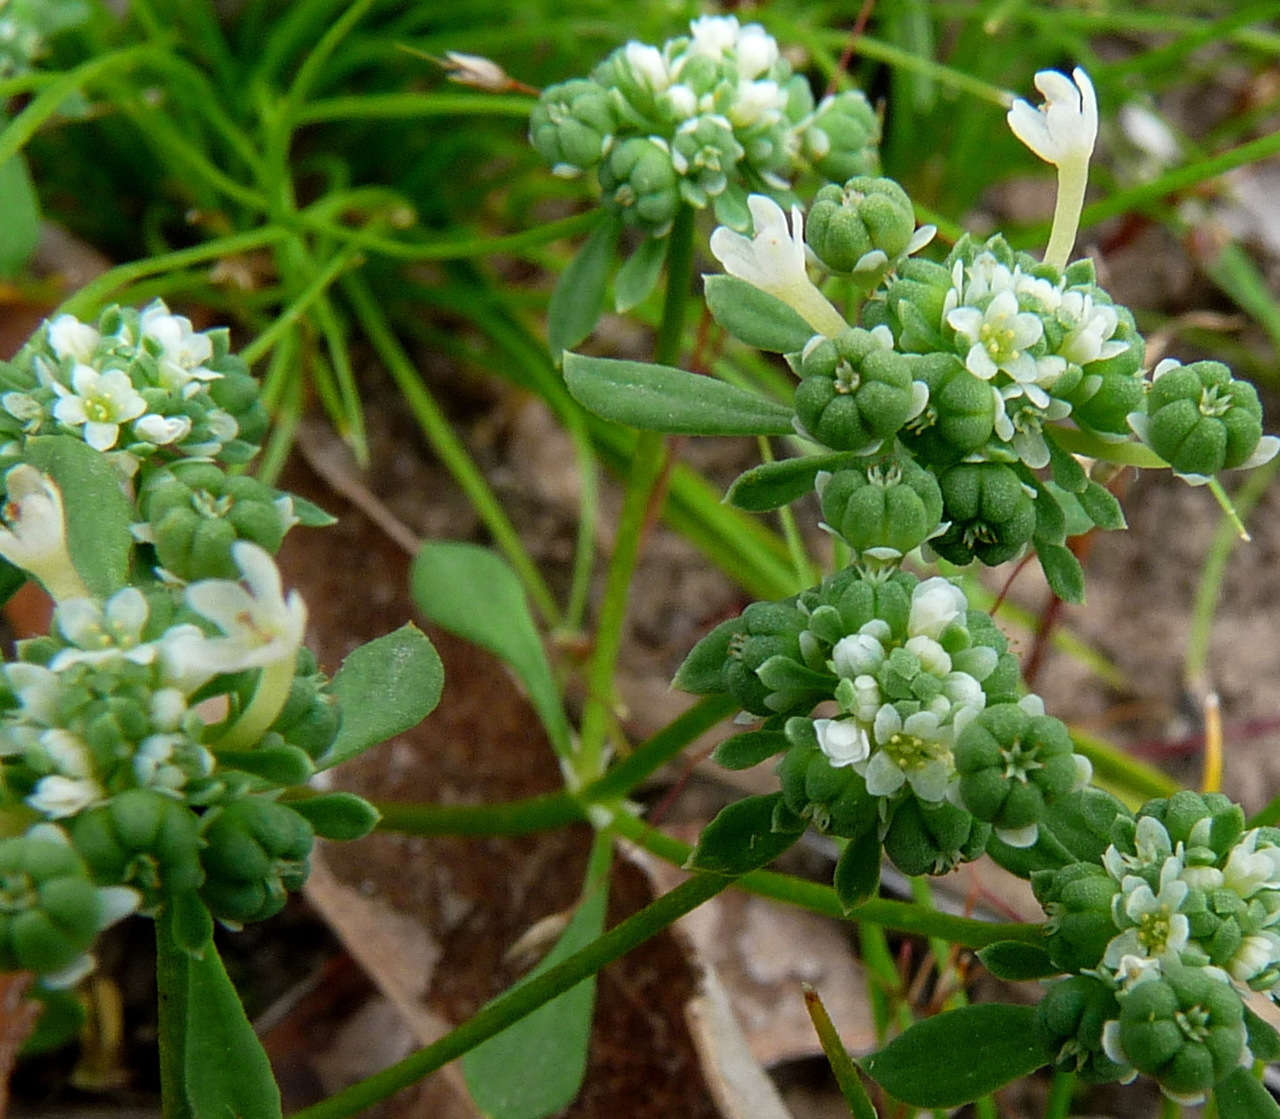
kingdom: Plantae
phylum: Tracheophyta
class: Magnoliopsida
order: Malpighiales
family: Phyllanthaceae
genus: Poranthera
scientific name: Poranthera microphylla
